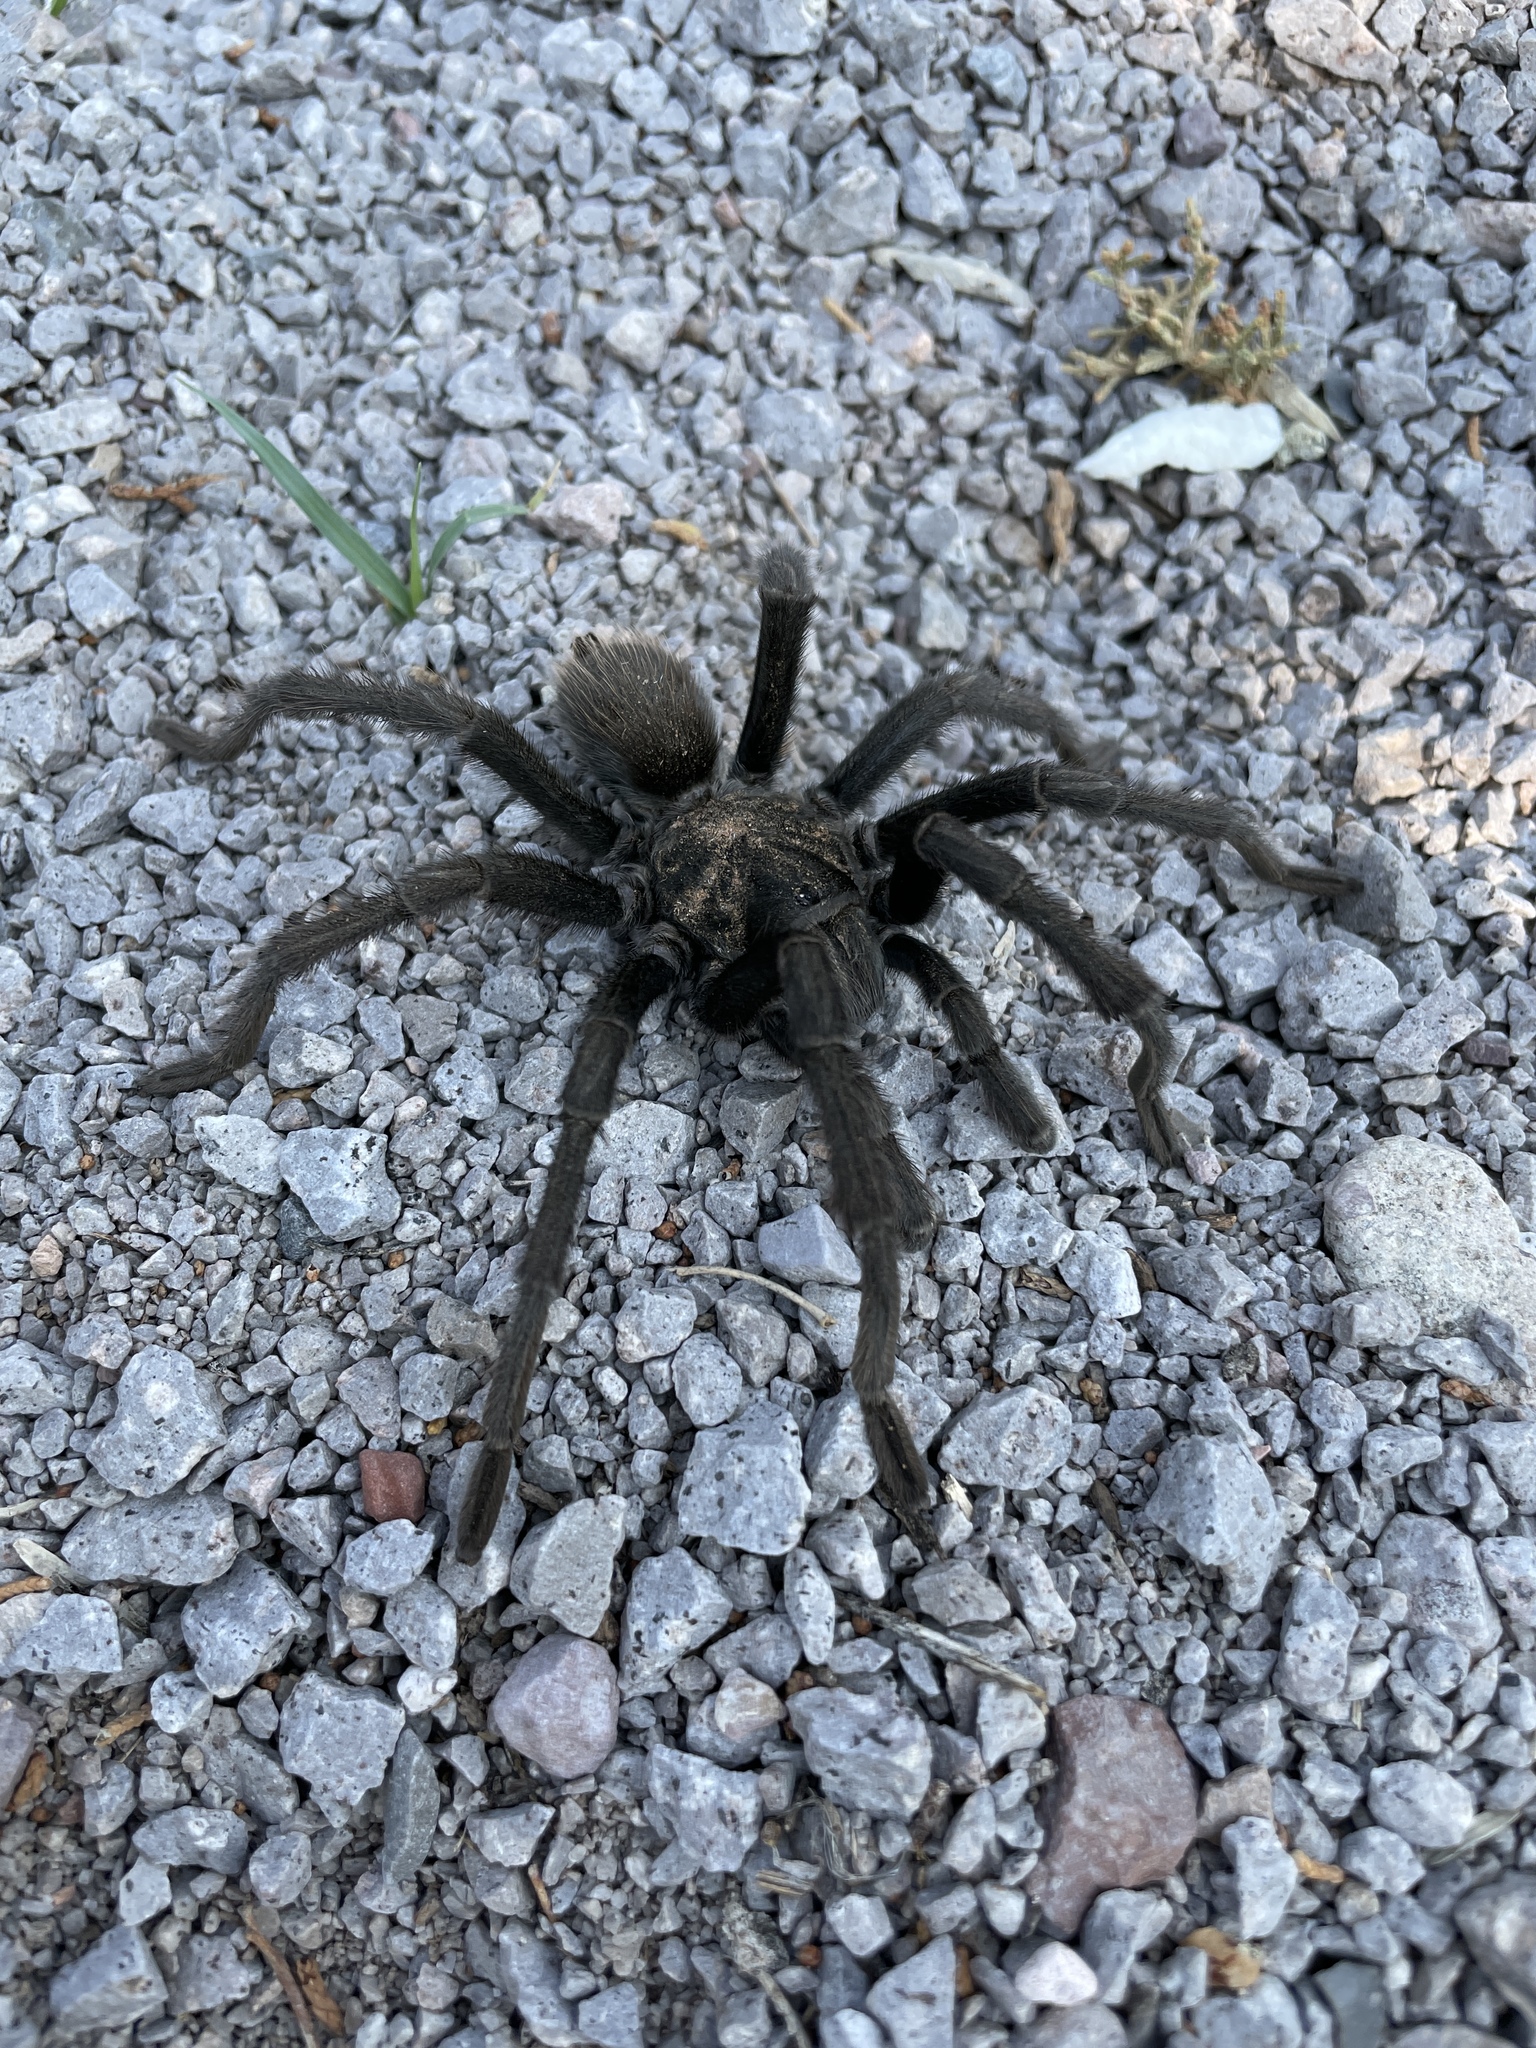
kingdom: Animalia
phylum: Arthropoda
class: Arachnida
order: Araneae
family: Theraphosidae
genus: Aphonopelma
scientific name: Aphonopelma gabeli
